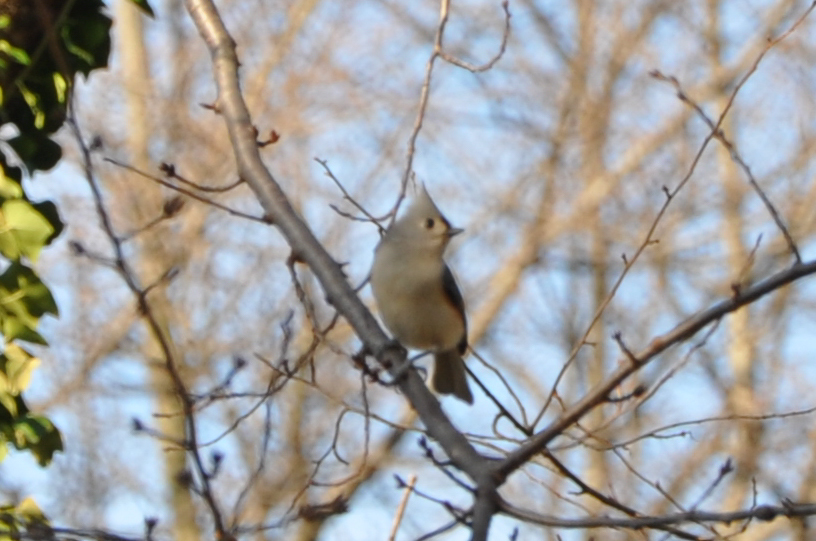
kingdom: Animalia
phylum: Chordata
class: Aves
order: Passeriformes
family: Paridae
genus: Baeolophus
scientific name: Baeolophus bicolor
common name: Tufted titmouse
